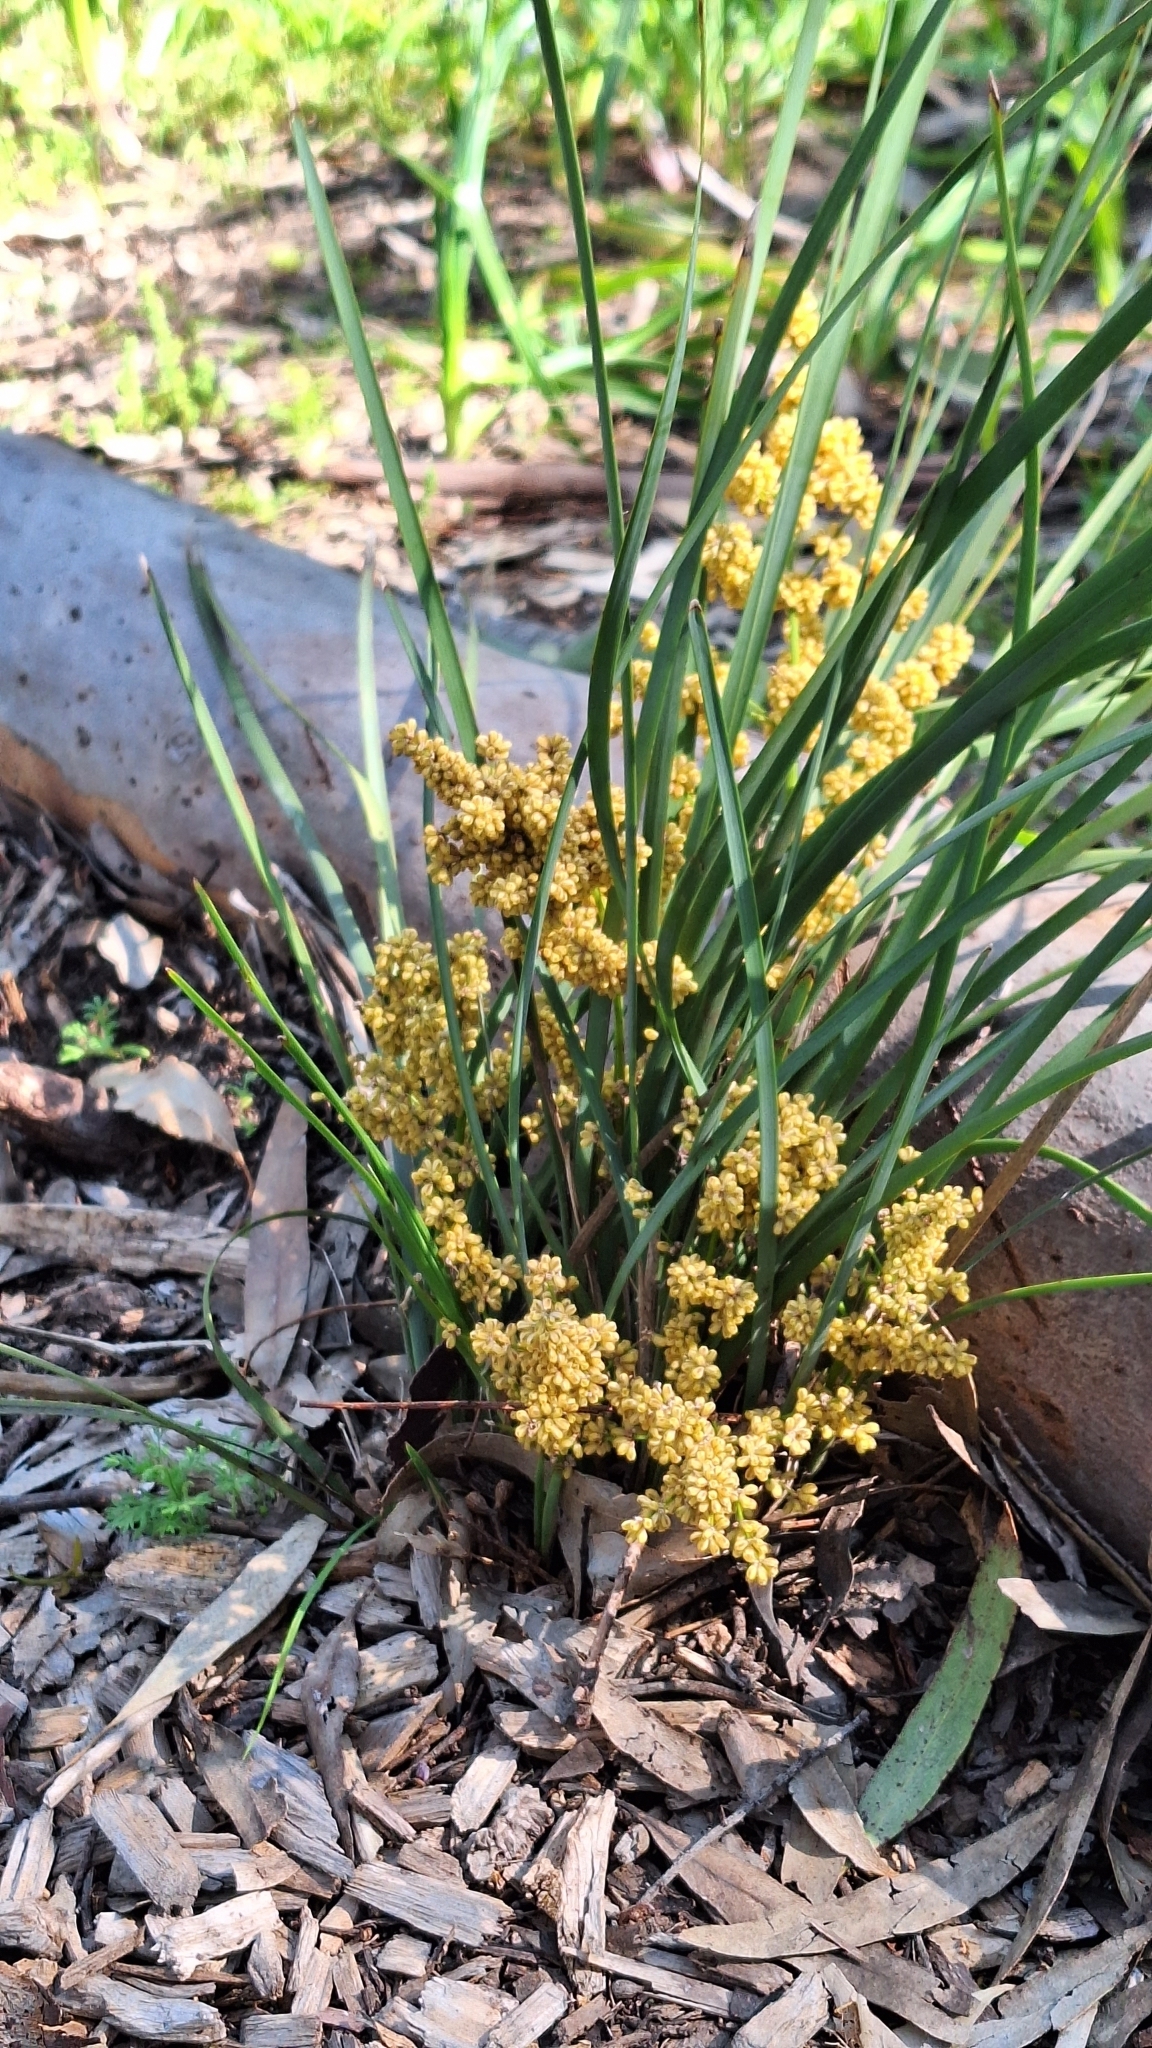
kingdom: Plantae
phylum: Tracheophyta
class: Liliopsida
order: Asparagales
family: Asparagaceae
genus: Lomandra
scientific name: Lomandra multiflora
